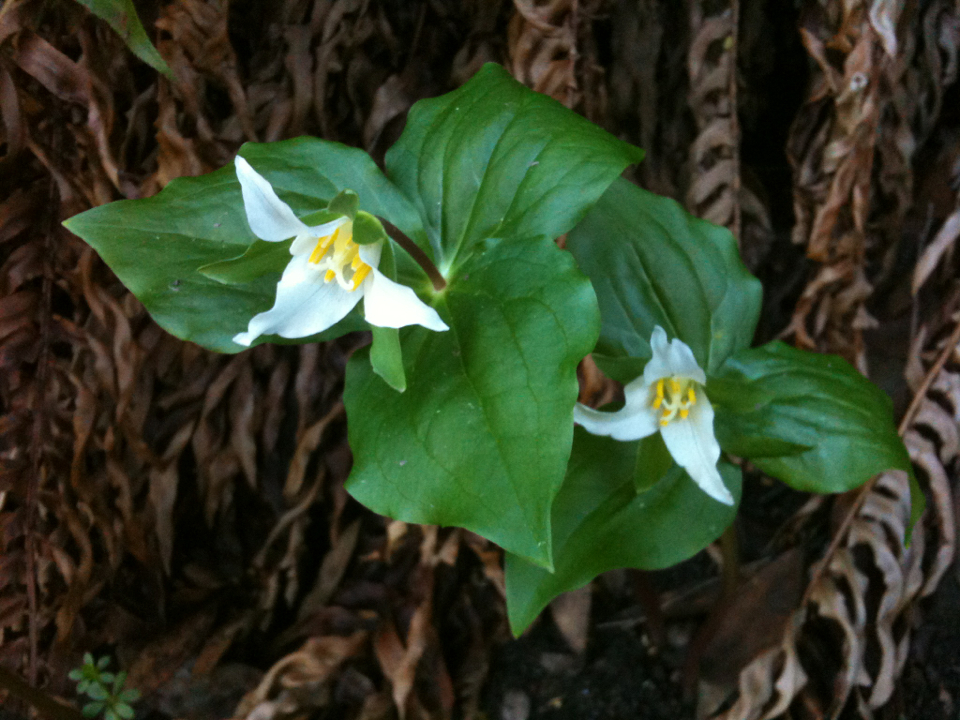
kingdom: Plantae
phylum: Tracheophyta
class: Liliopsida
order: Liliales
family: Melanthiaceae
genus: Trillium
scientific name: Trillium ovatum
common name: Pacific trillium
